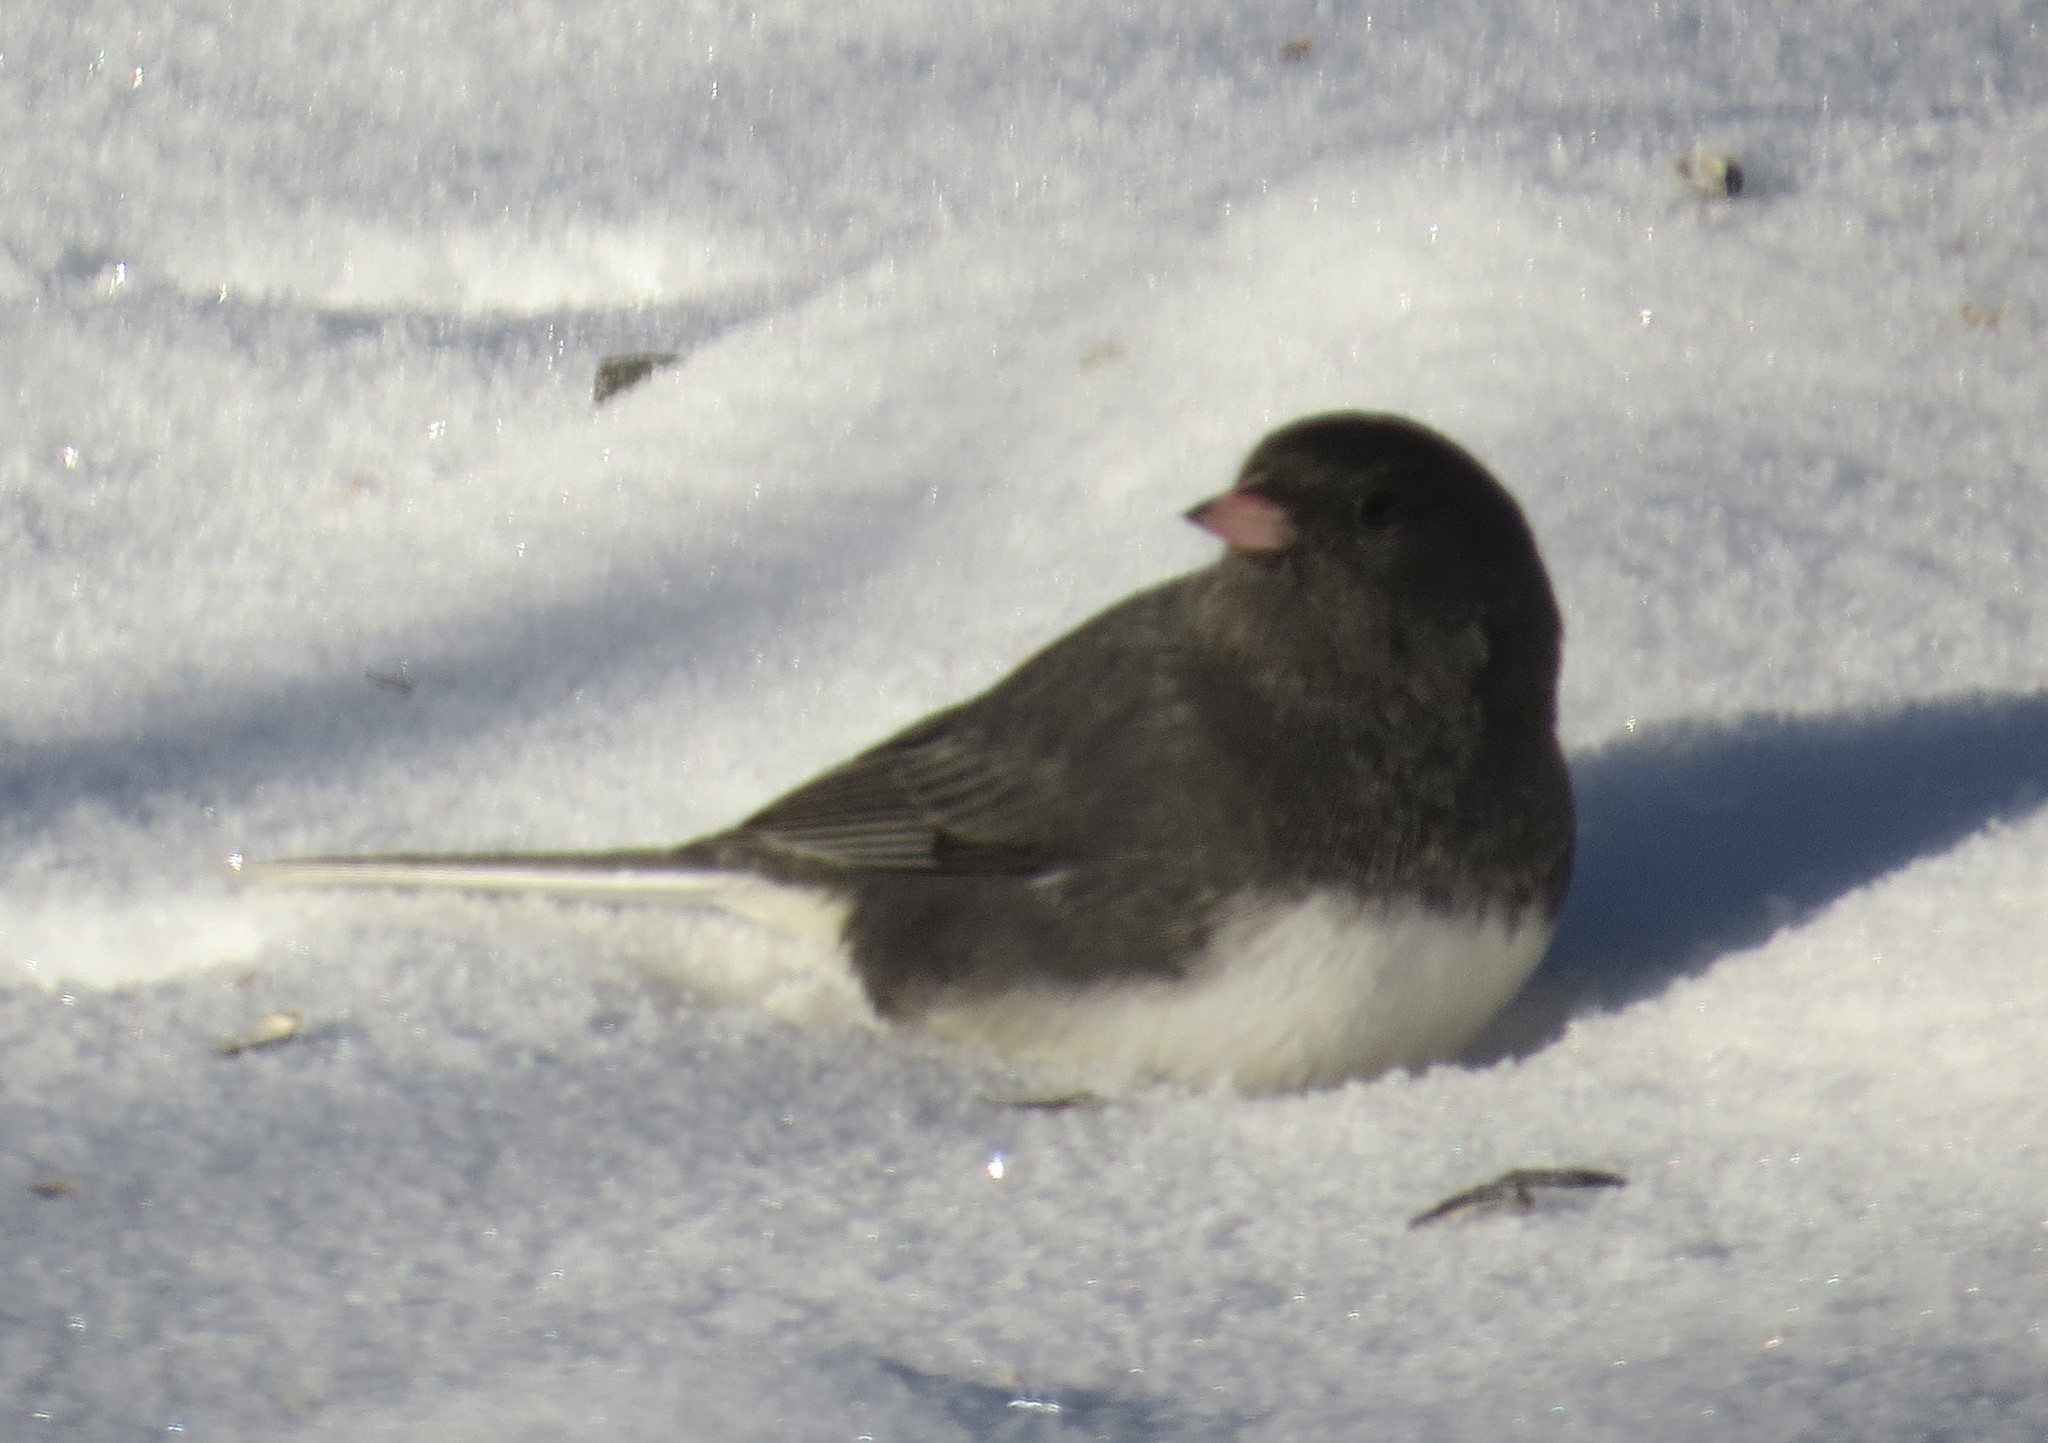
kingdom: Animalia
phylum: Chordata
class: Aves
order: Passeriformes
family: Passerellidae
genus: Junco
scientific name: Junco hyemalis
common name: Dark-eyed junco
